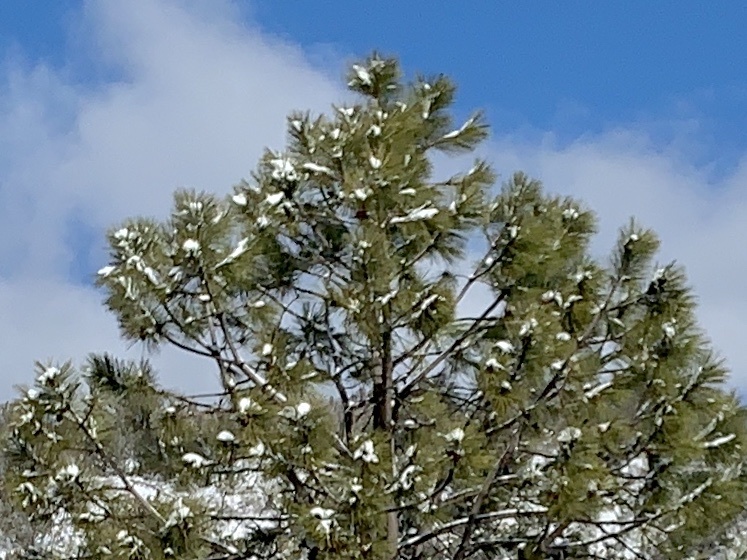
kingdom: Plantae
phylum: Tracheophyta
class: Pinopsida
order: Pinales
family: Pinaceae
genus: Pinus
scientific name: Pinus ponderosa
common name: Western yellow-pine
